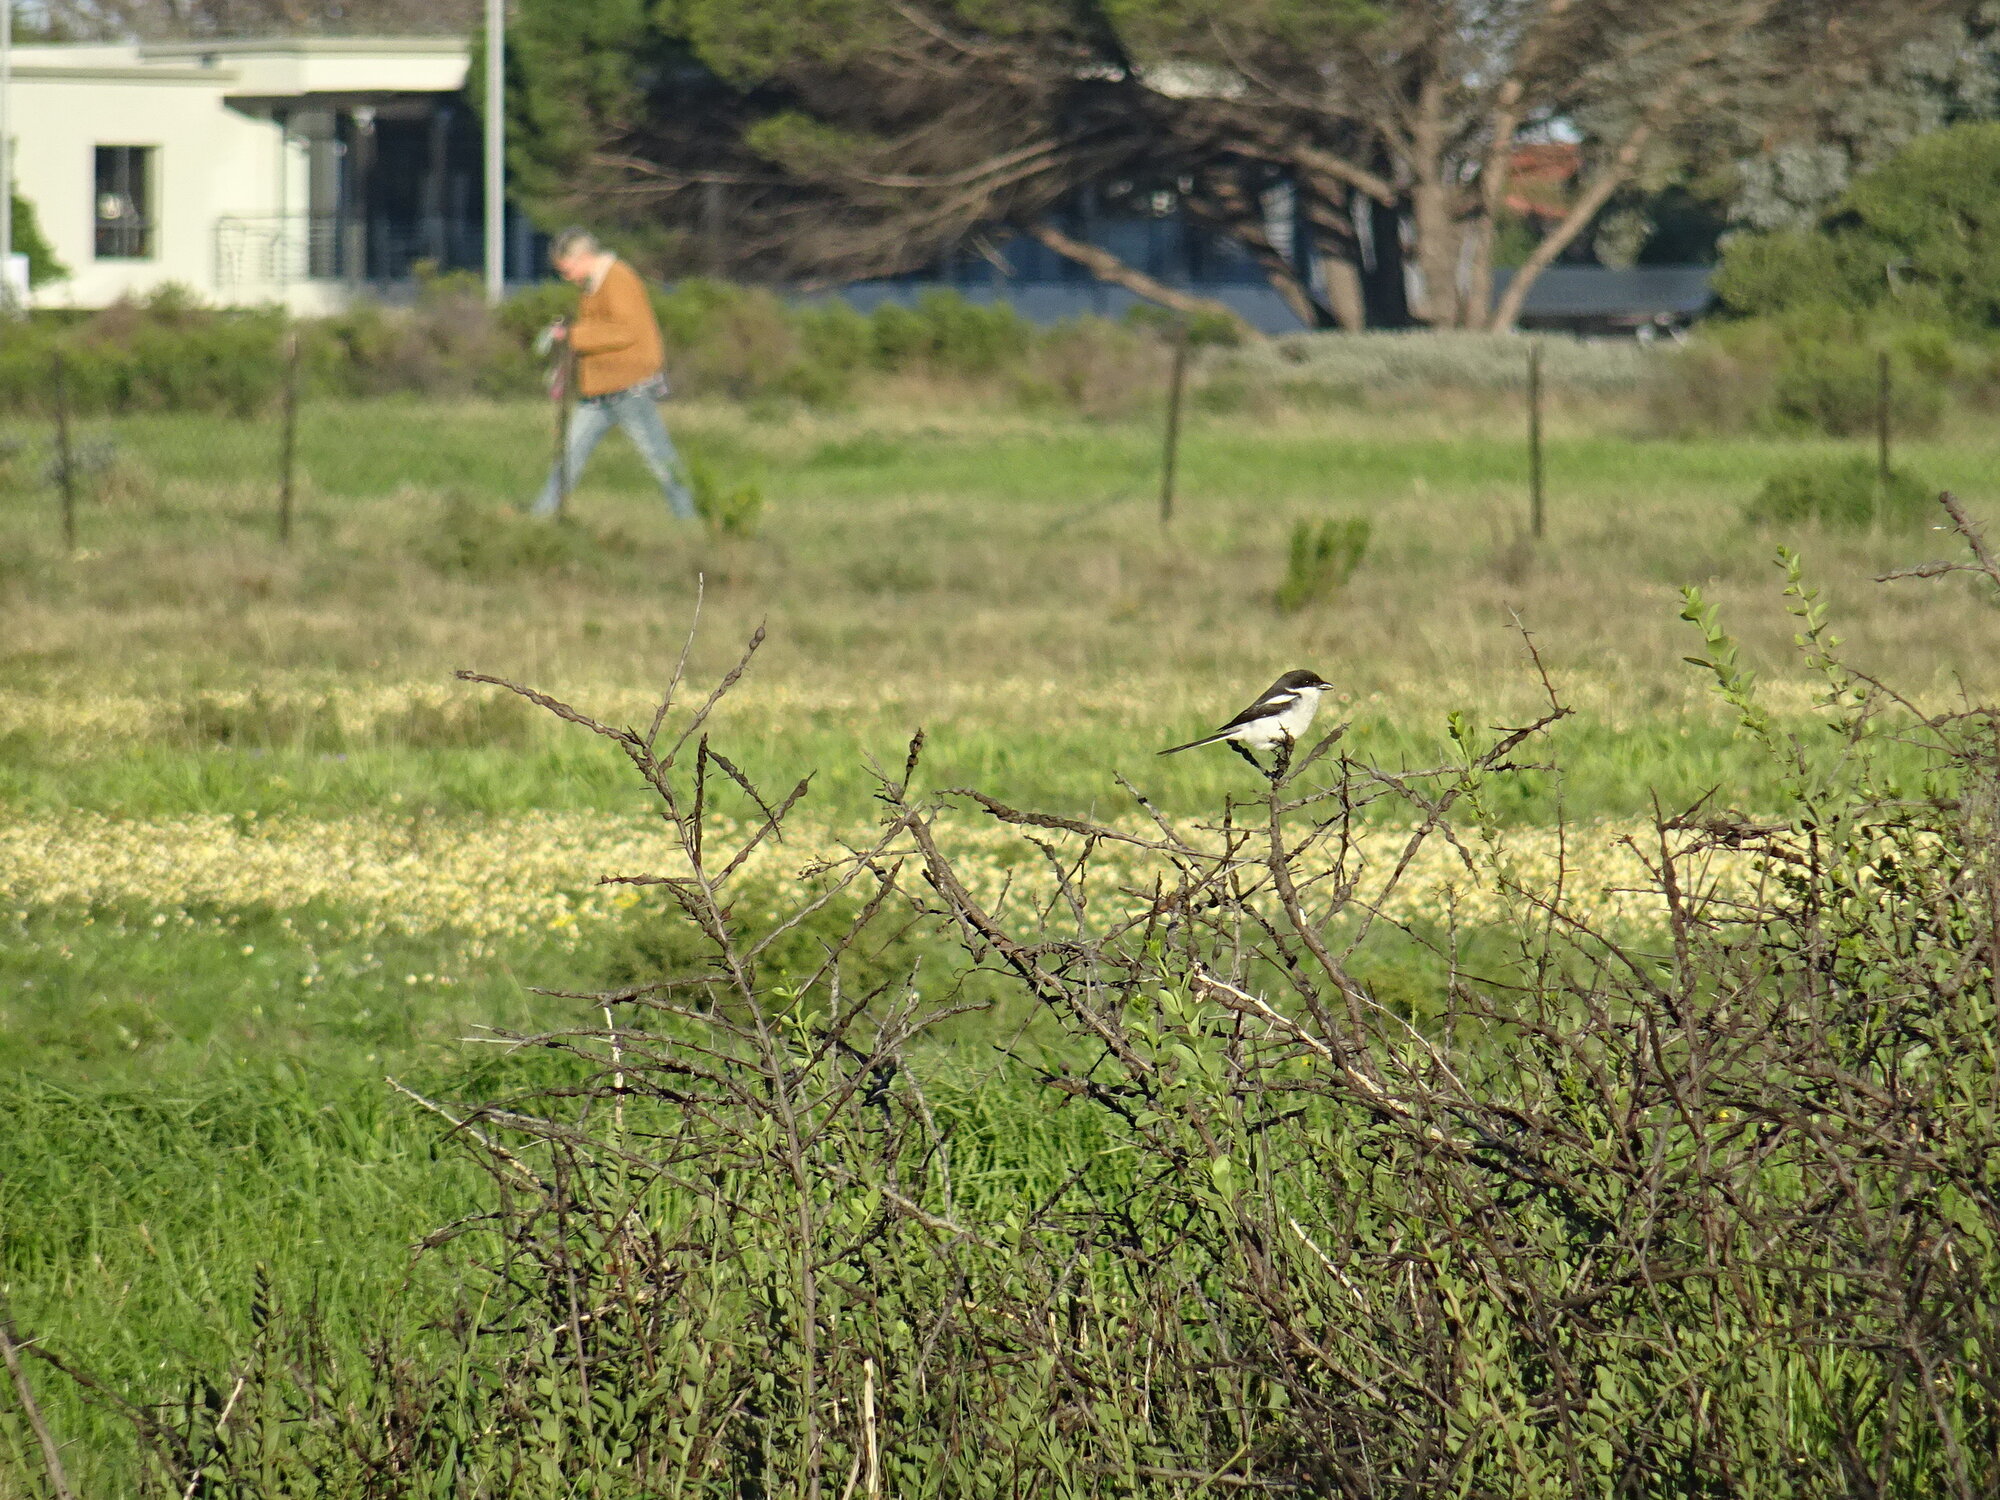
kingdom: Animalia
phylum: Chordata
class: Aves
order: Passeriformes
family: Laniidae
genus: Lanius
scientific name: Lanius collaris
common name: Southern fiscal
